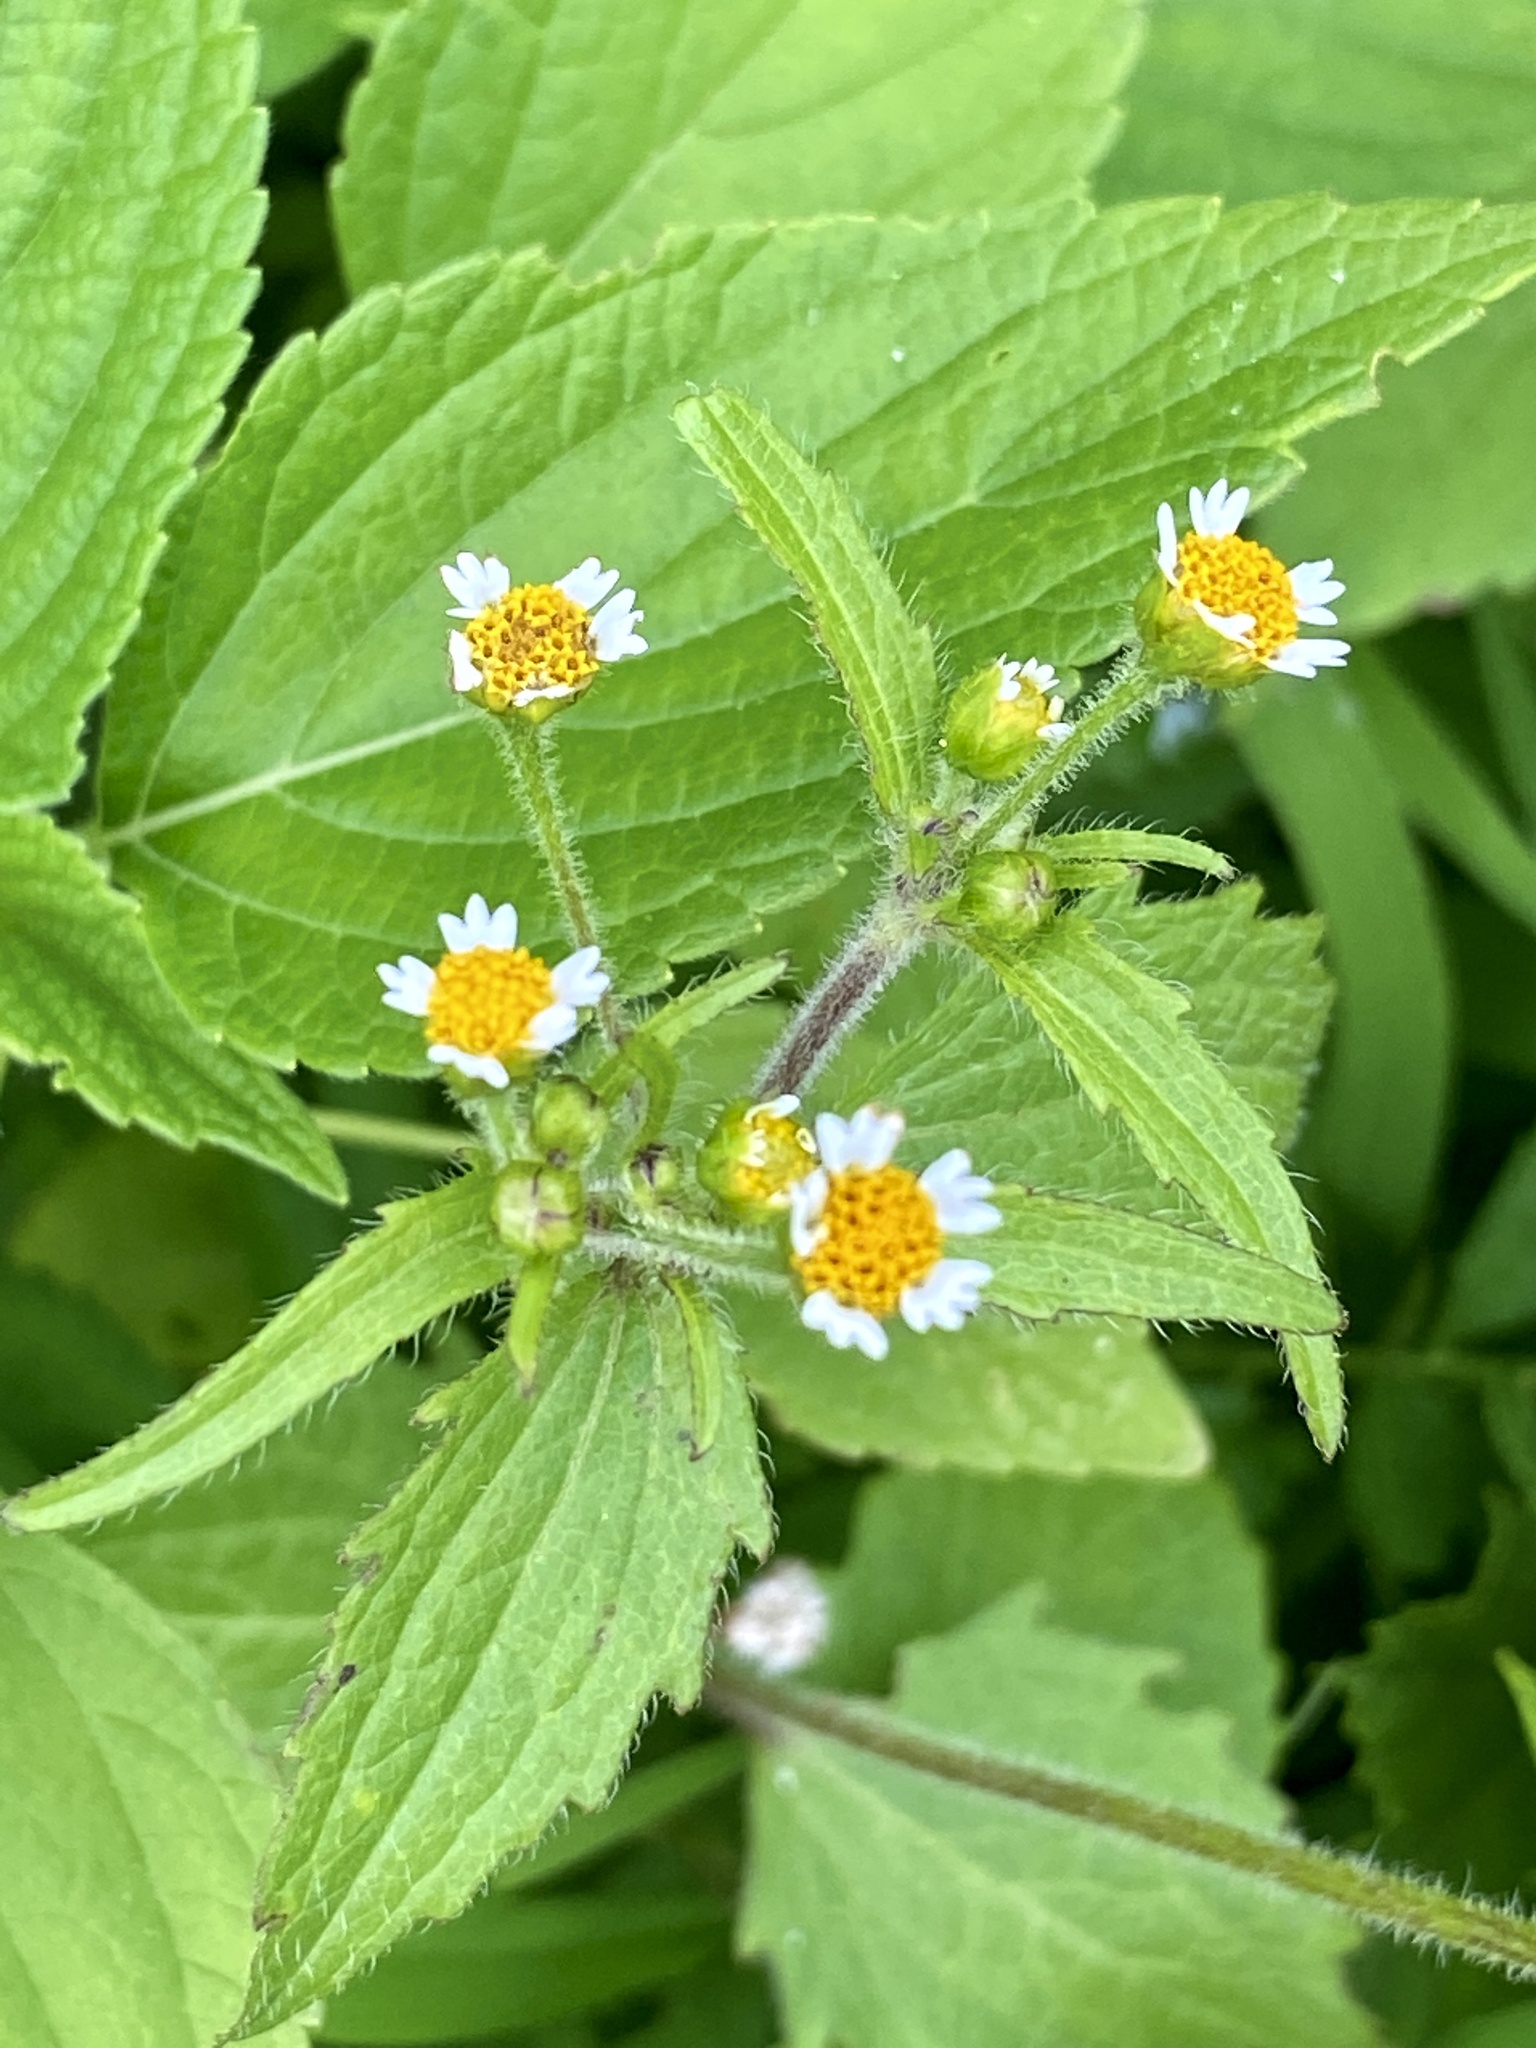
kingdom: Plantae
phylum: Tracheophyta
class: Magnoliopsida
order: Asterales
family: Asteraceae
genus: Galinsoga
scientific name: Galinsoga quadriradiata
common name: Shaggy soldier
